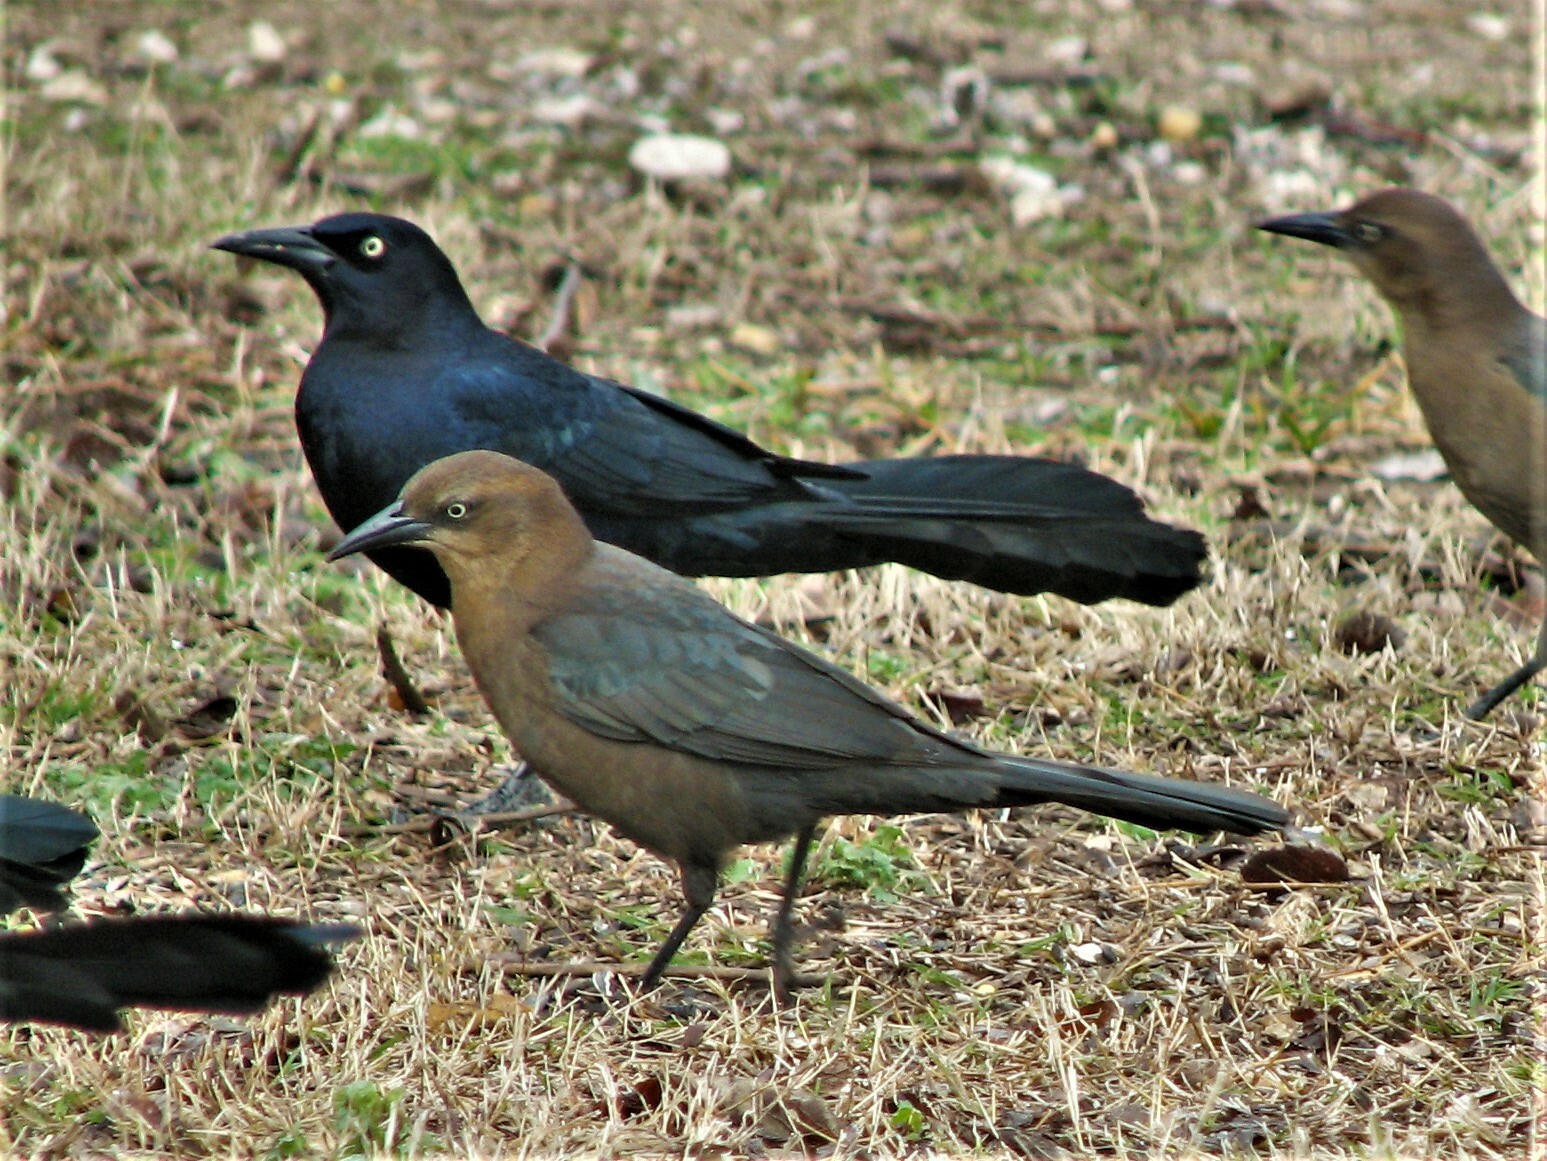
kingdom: Animalia
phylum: Chordata
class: Aves
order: Passeriformes
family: Icteridae
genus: Quiscalus
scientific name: Quiscalus mexicanus
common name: Great-tailed grackle
